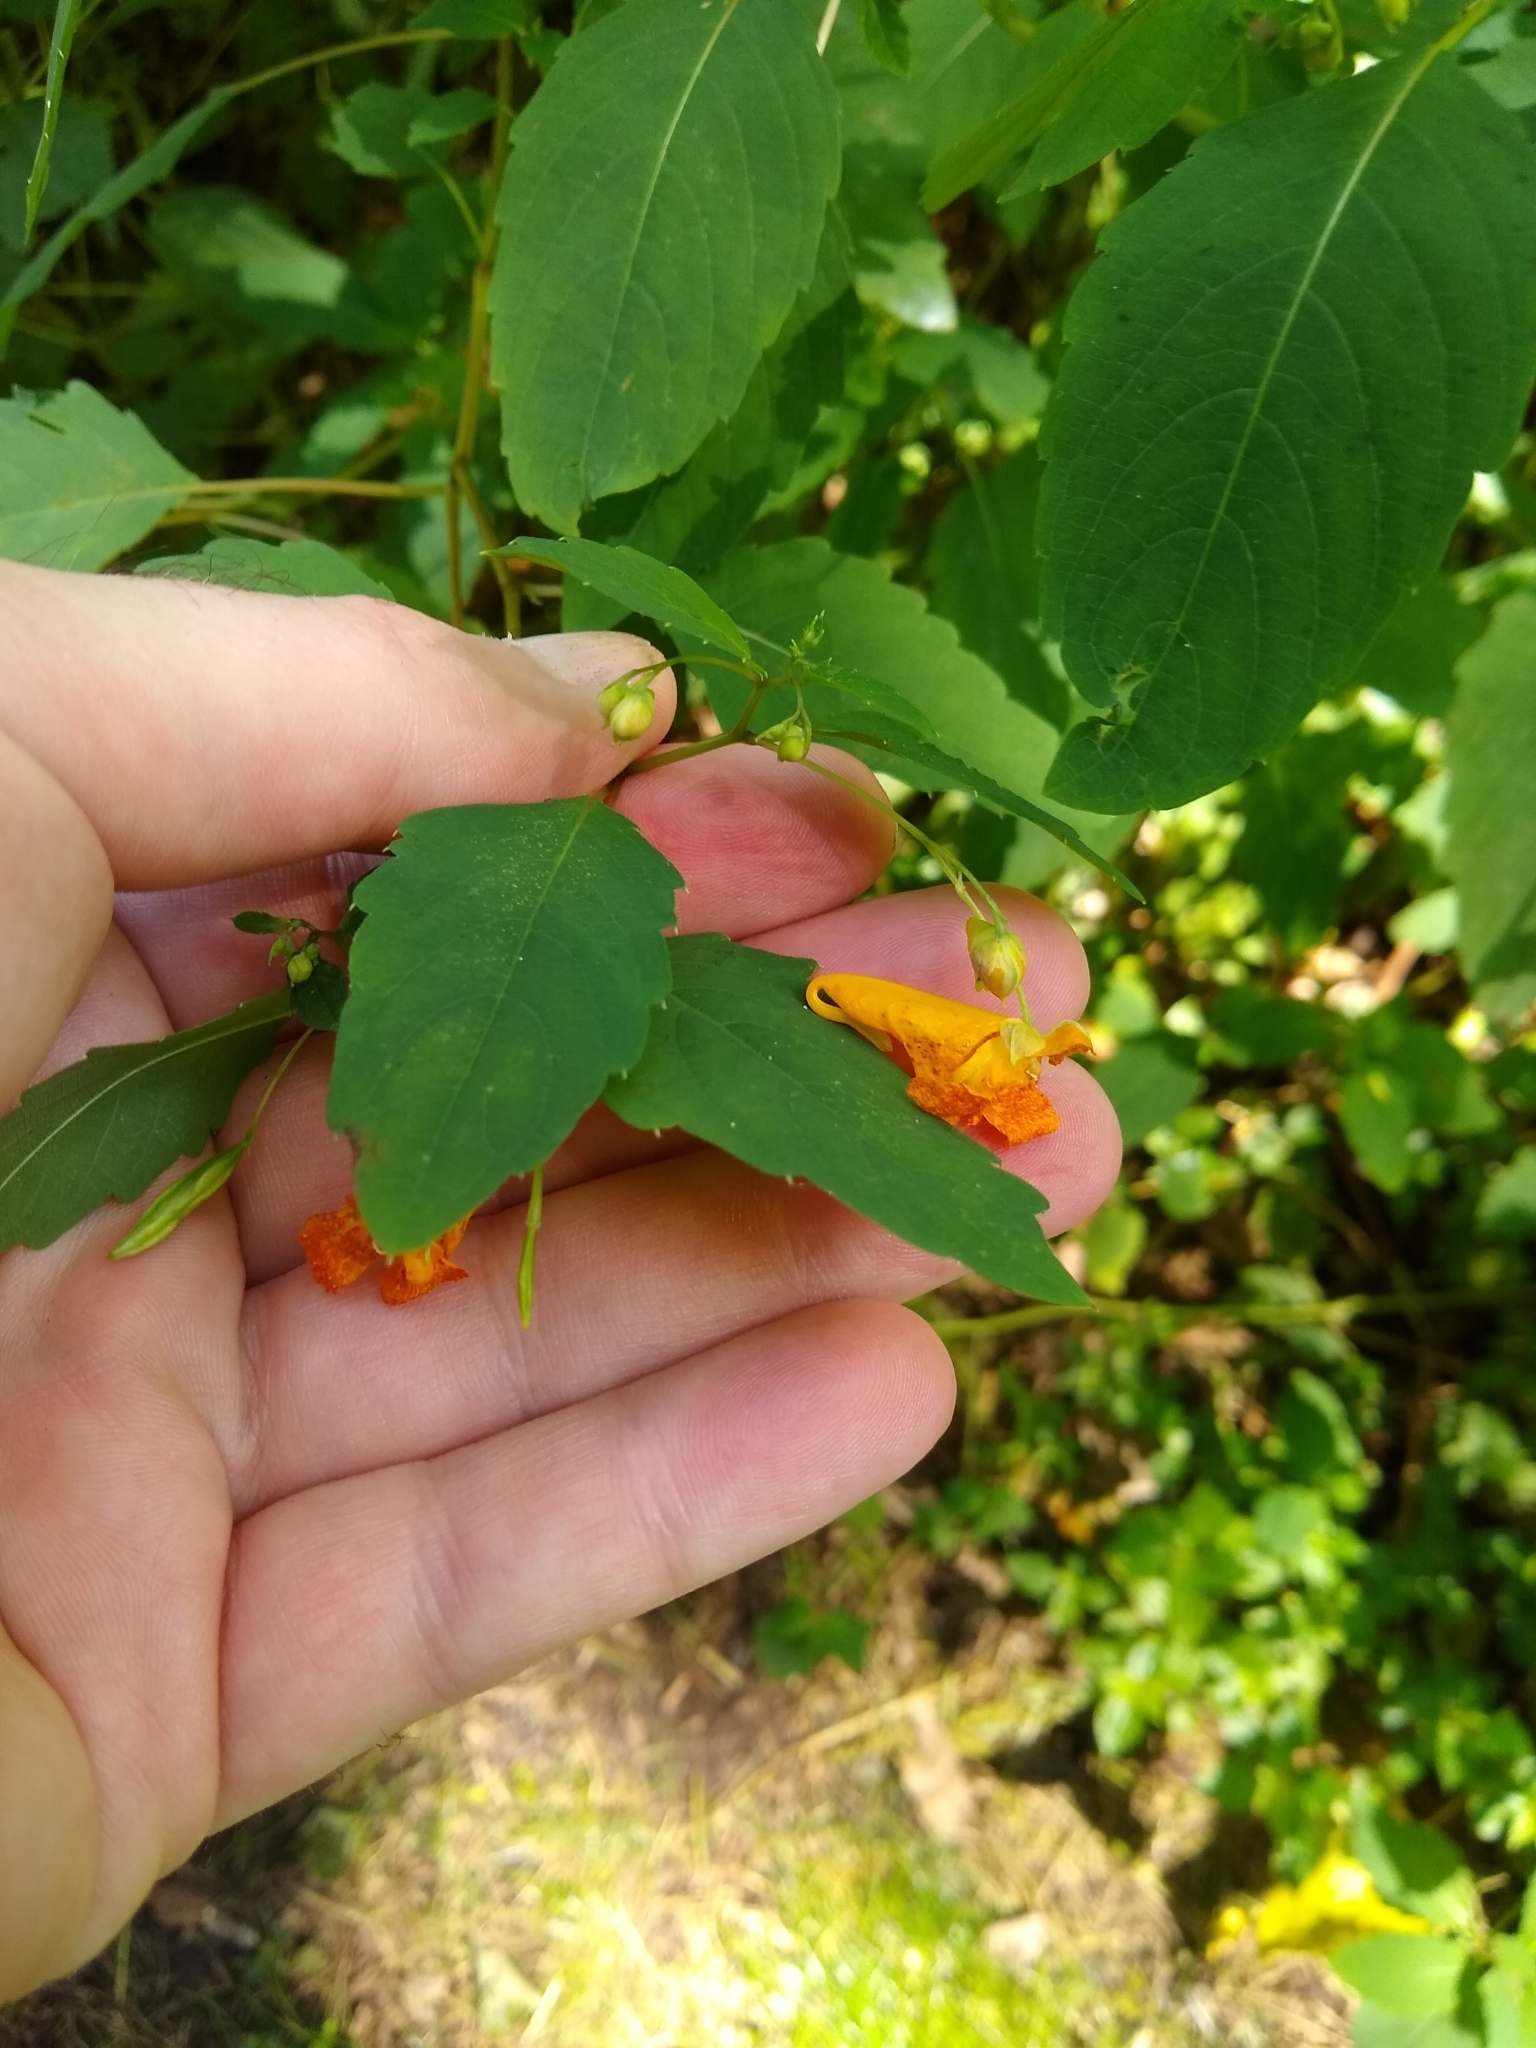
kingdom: Plantae
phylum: Tracheophyta
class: Magnoliopsida
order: Ericales
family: Balsaminaceae
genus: Impatiens
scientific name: Impatiens capensis
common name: Orange balsam
